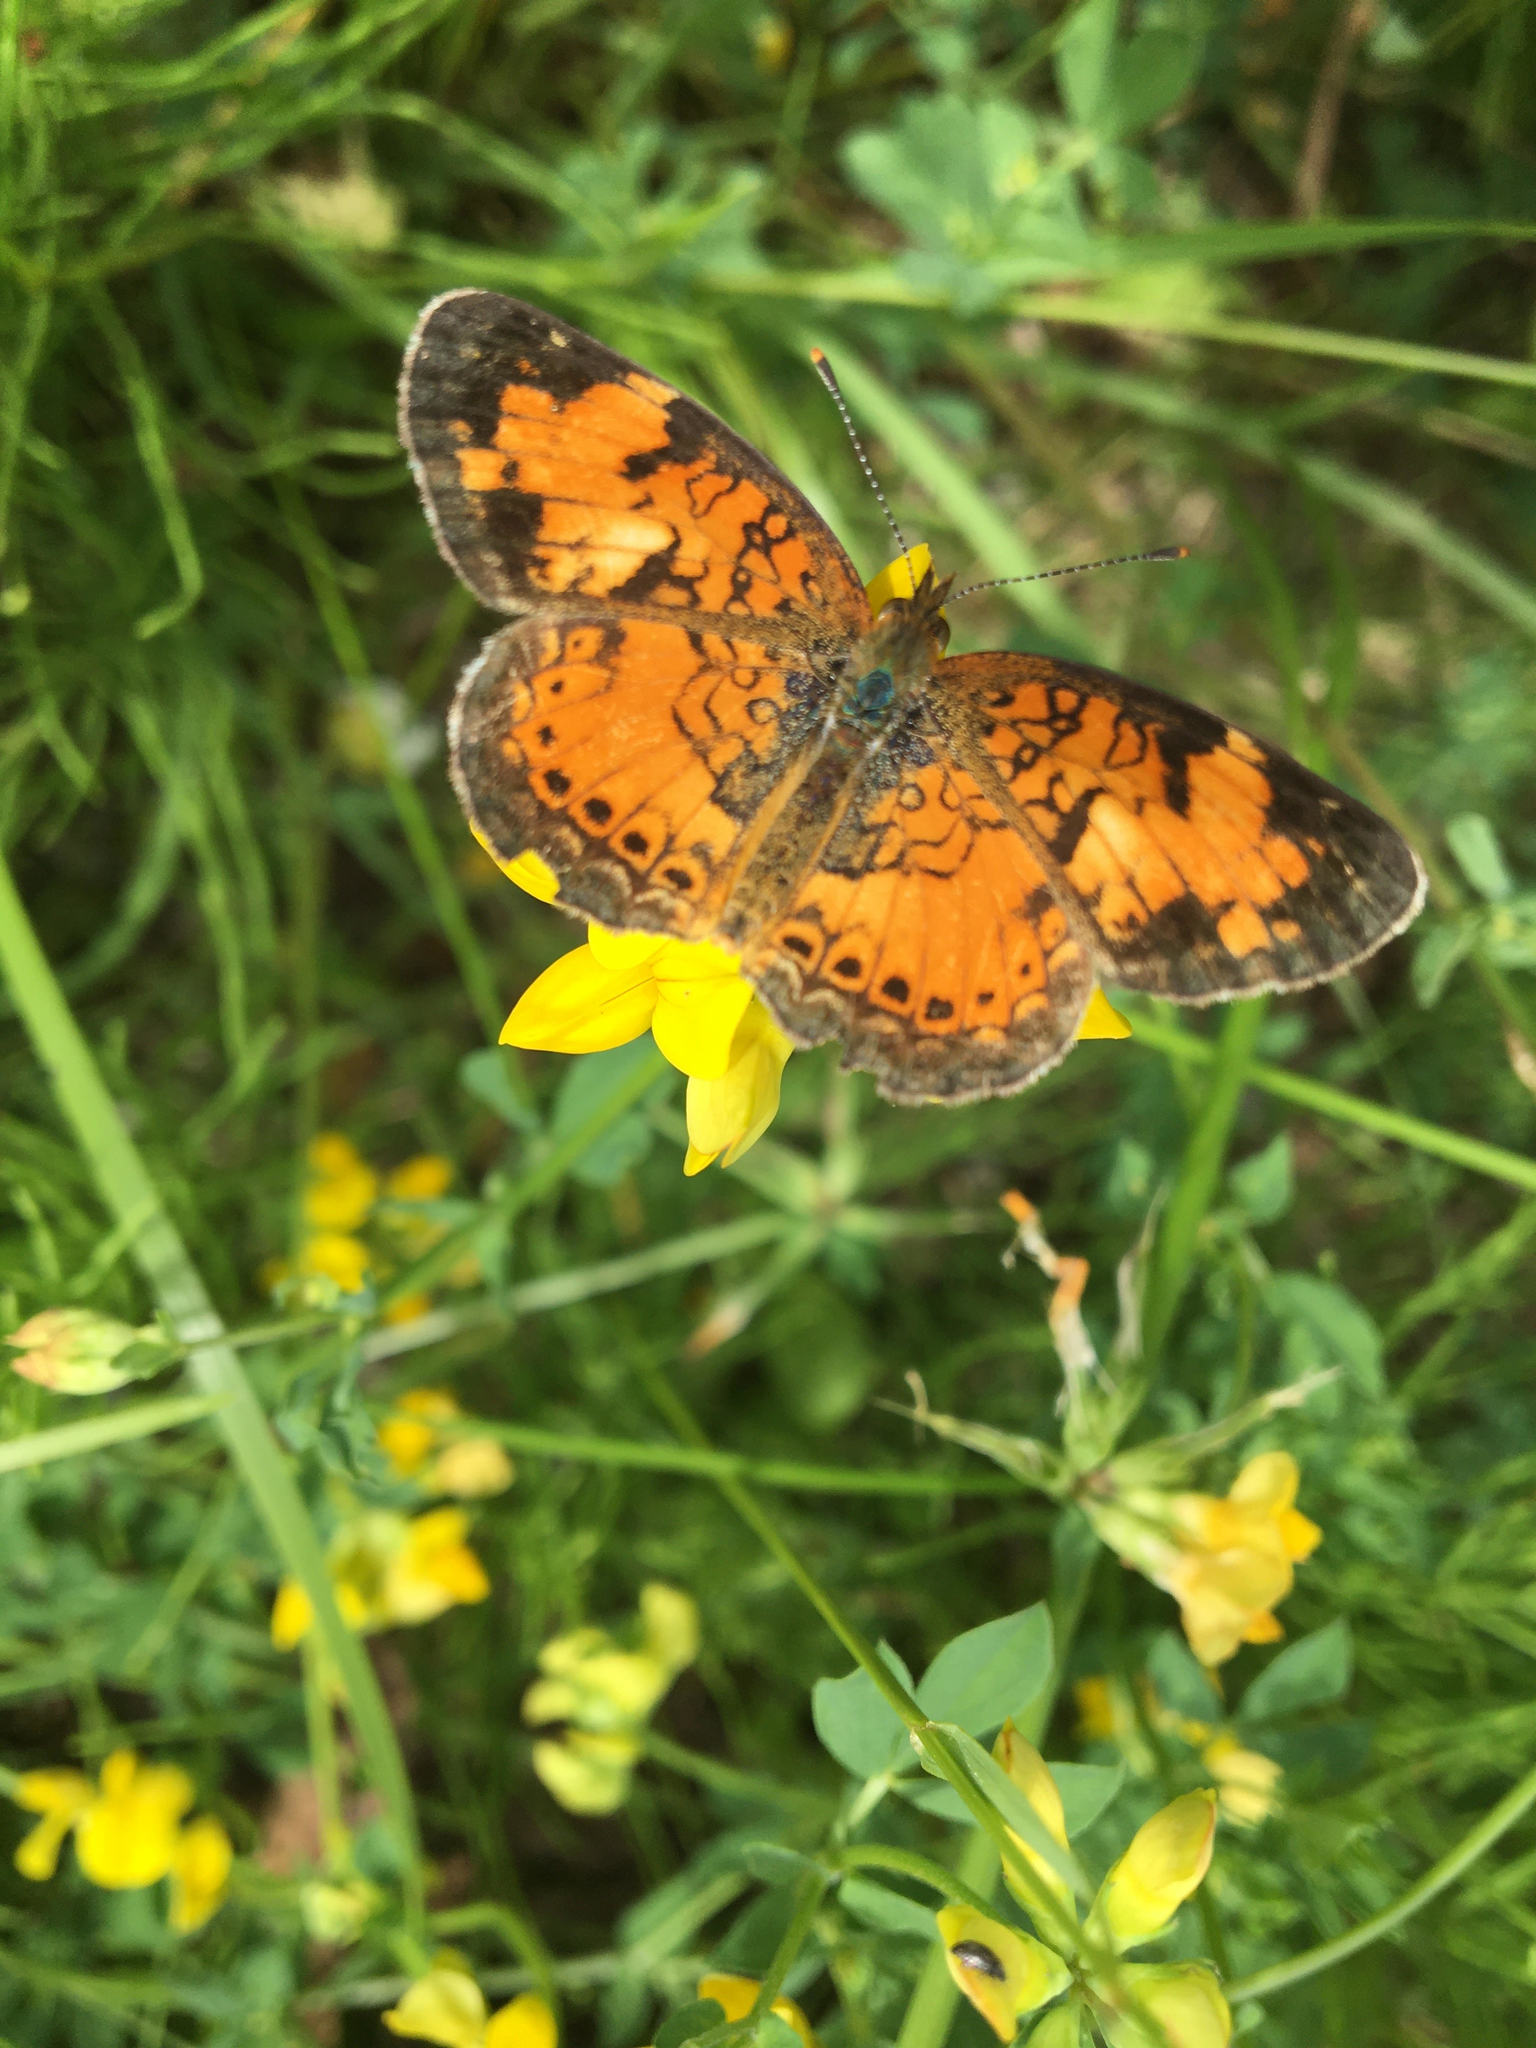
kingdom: Animalia
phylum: Arthropoda
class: Insecta
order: Lepidoptera
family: Nymphalidae
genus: Phyciodes
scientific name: Phyciodes tharos
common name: Pearl crescent
